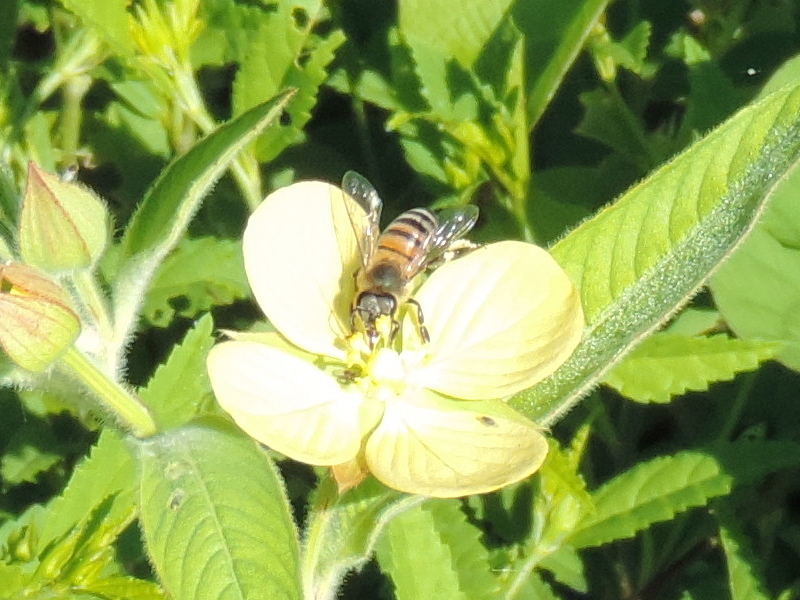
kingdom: Animalia
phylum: Arthropoda
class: Insecta
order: Hymenoptera
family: Apidae
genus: Apis
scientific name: Apis mellifera
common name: Honey bee
